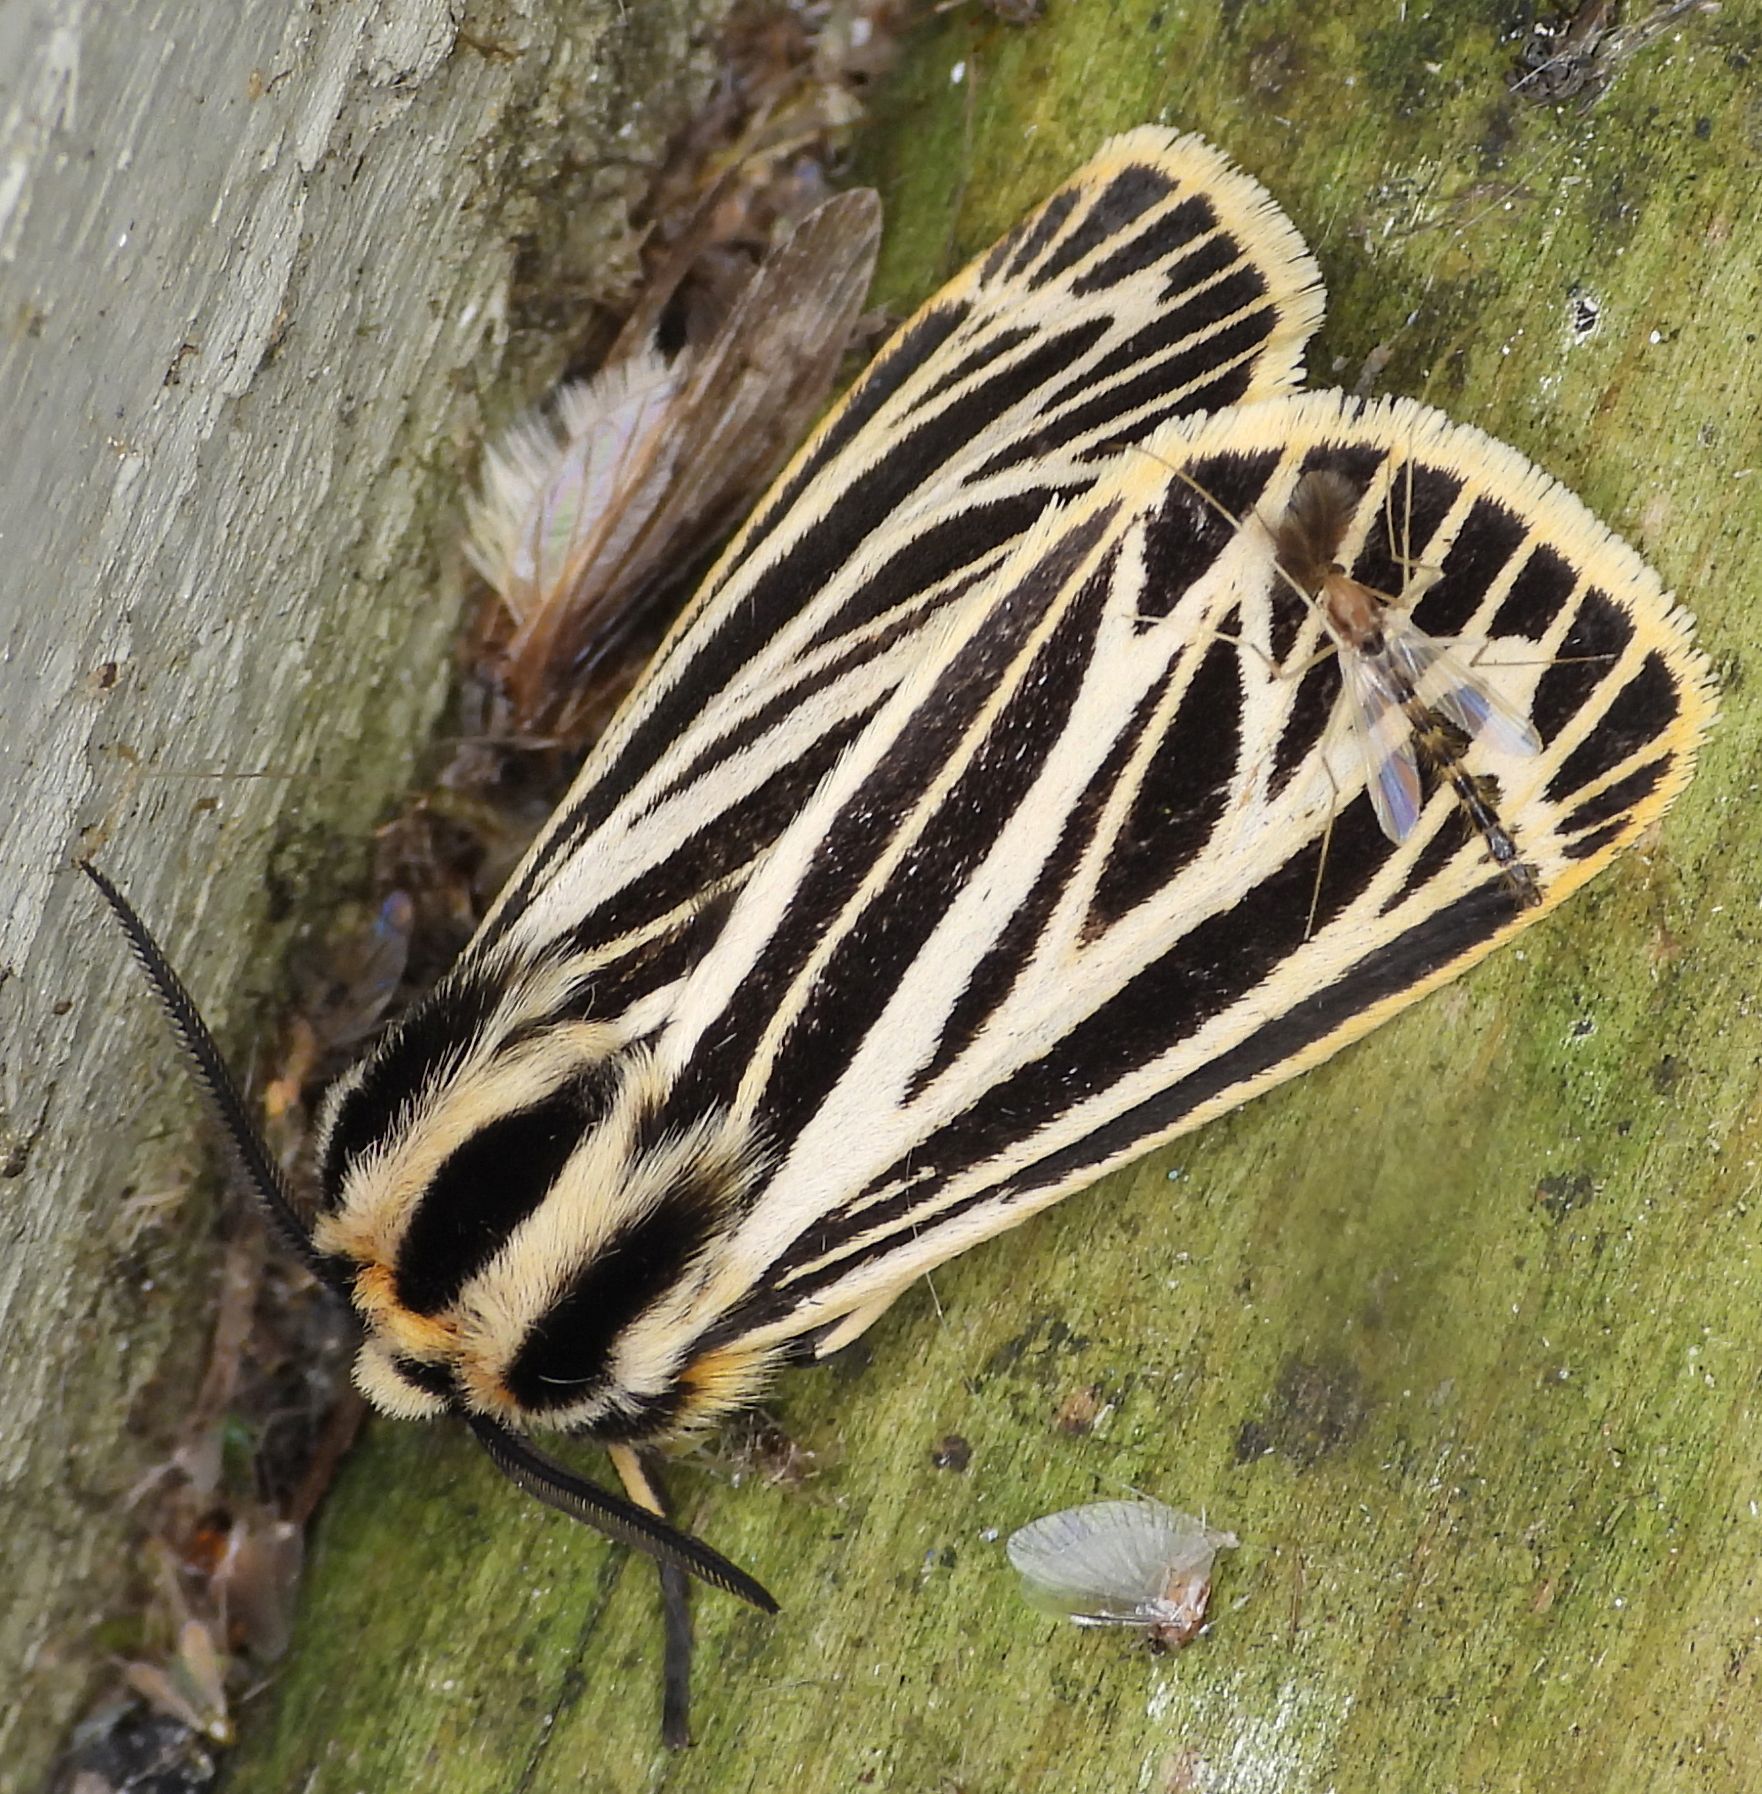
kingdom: Animalia
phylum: Arthropoda
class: Insecta
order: Lepidoptera
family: Erebidae
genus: Grammia
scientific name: Grammia virguncula
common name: Little tiger moth
